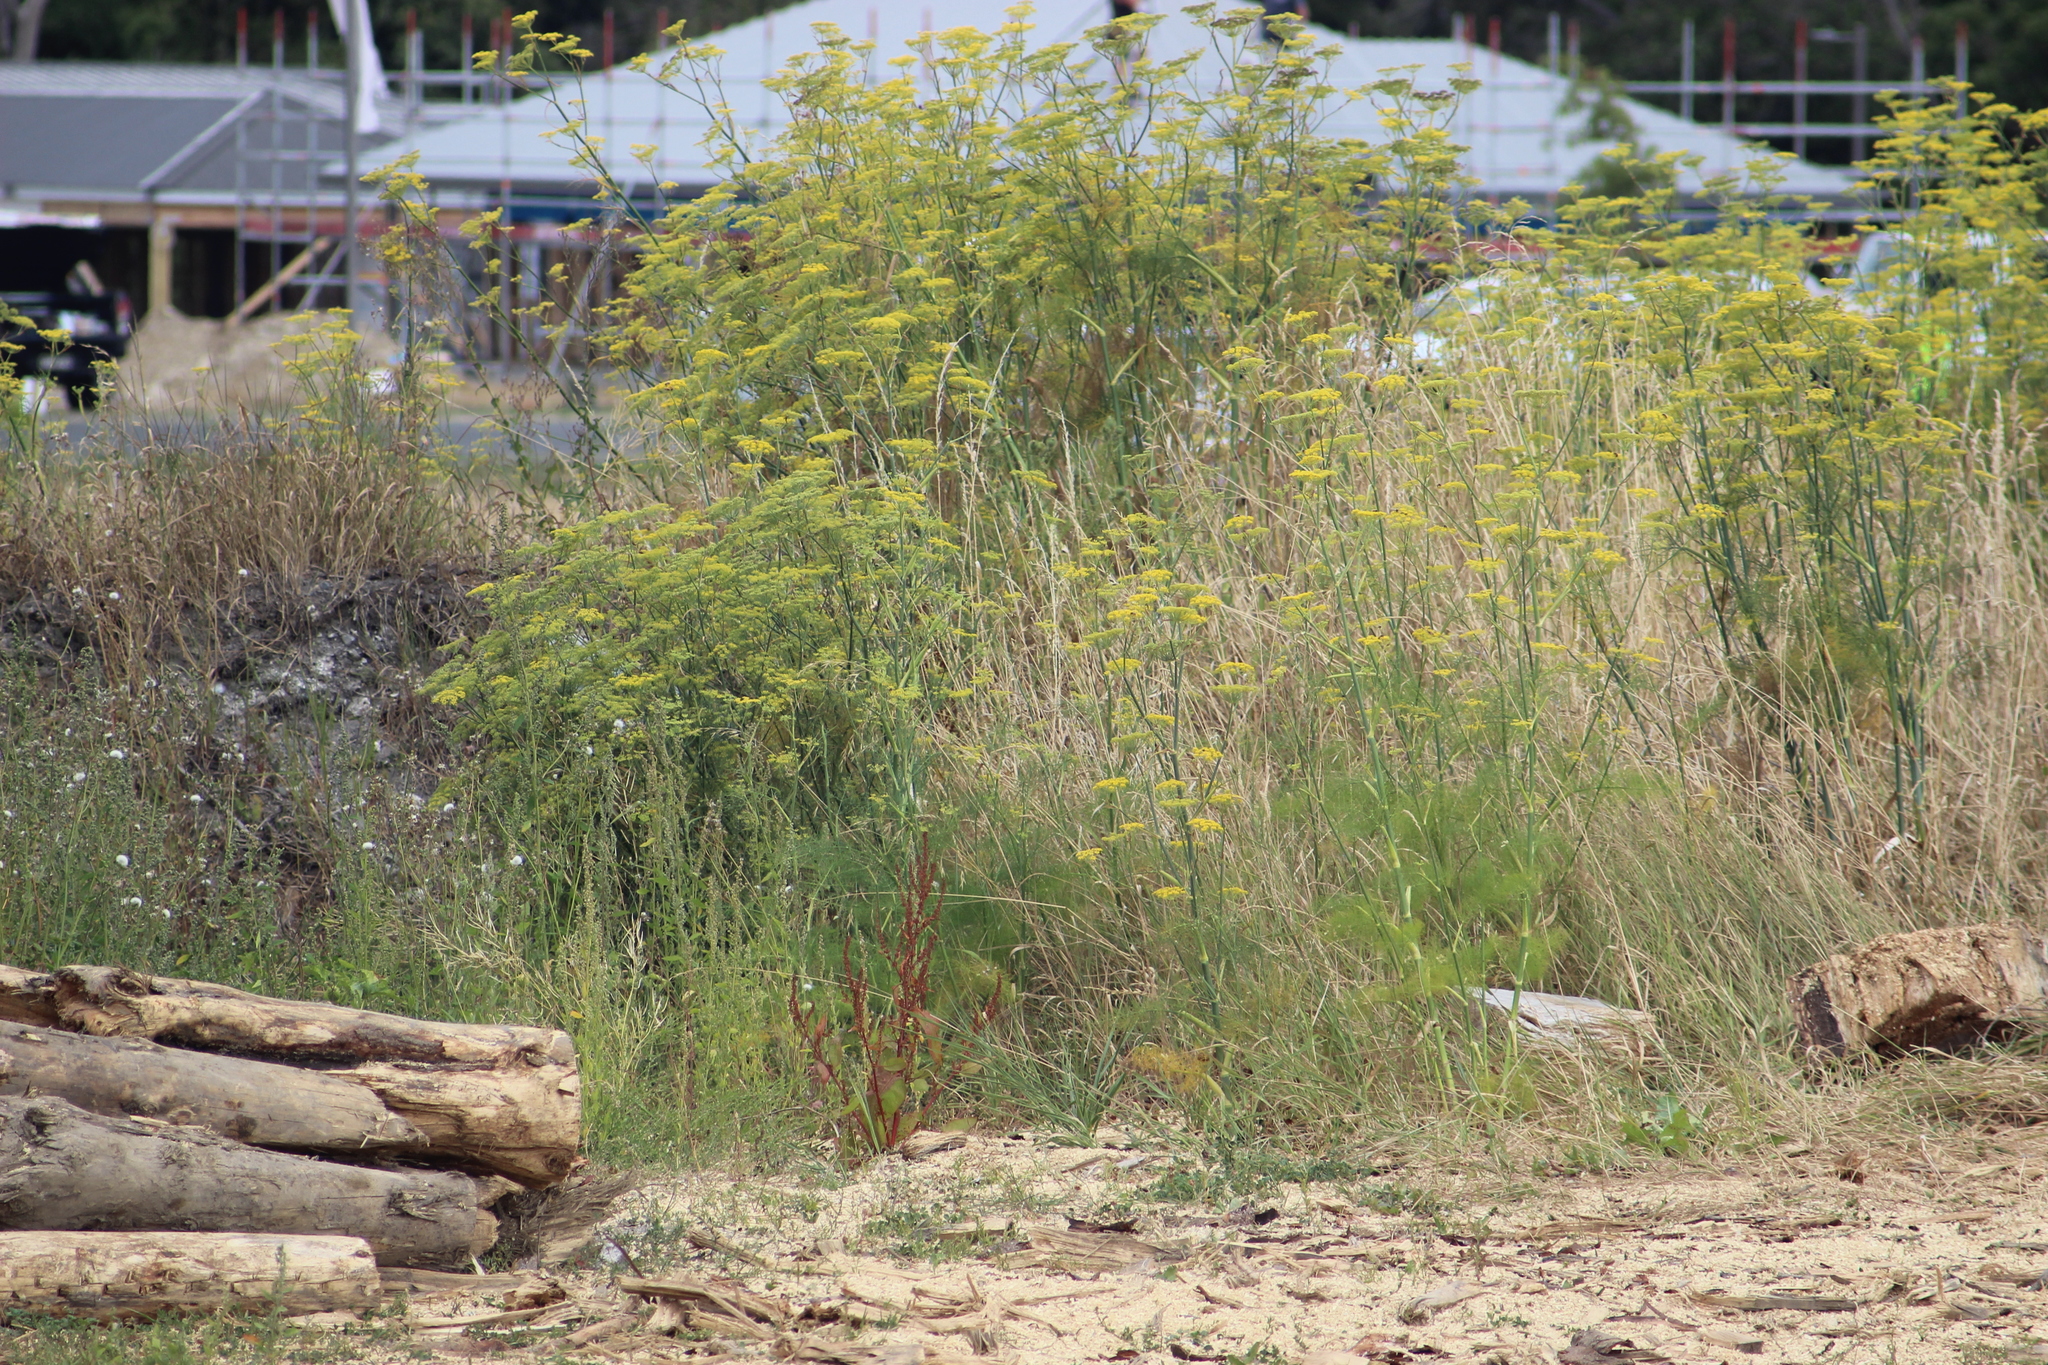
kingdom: Plantae
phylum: Tracheophyta
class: Magnoliopsida
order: Apiales
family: Apiaceae
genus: Foeniculum
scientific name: Foeniculum vulgare
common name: Fennel
